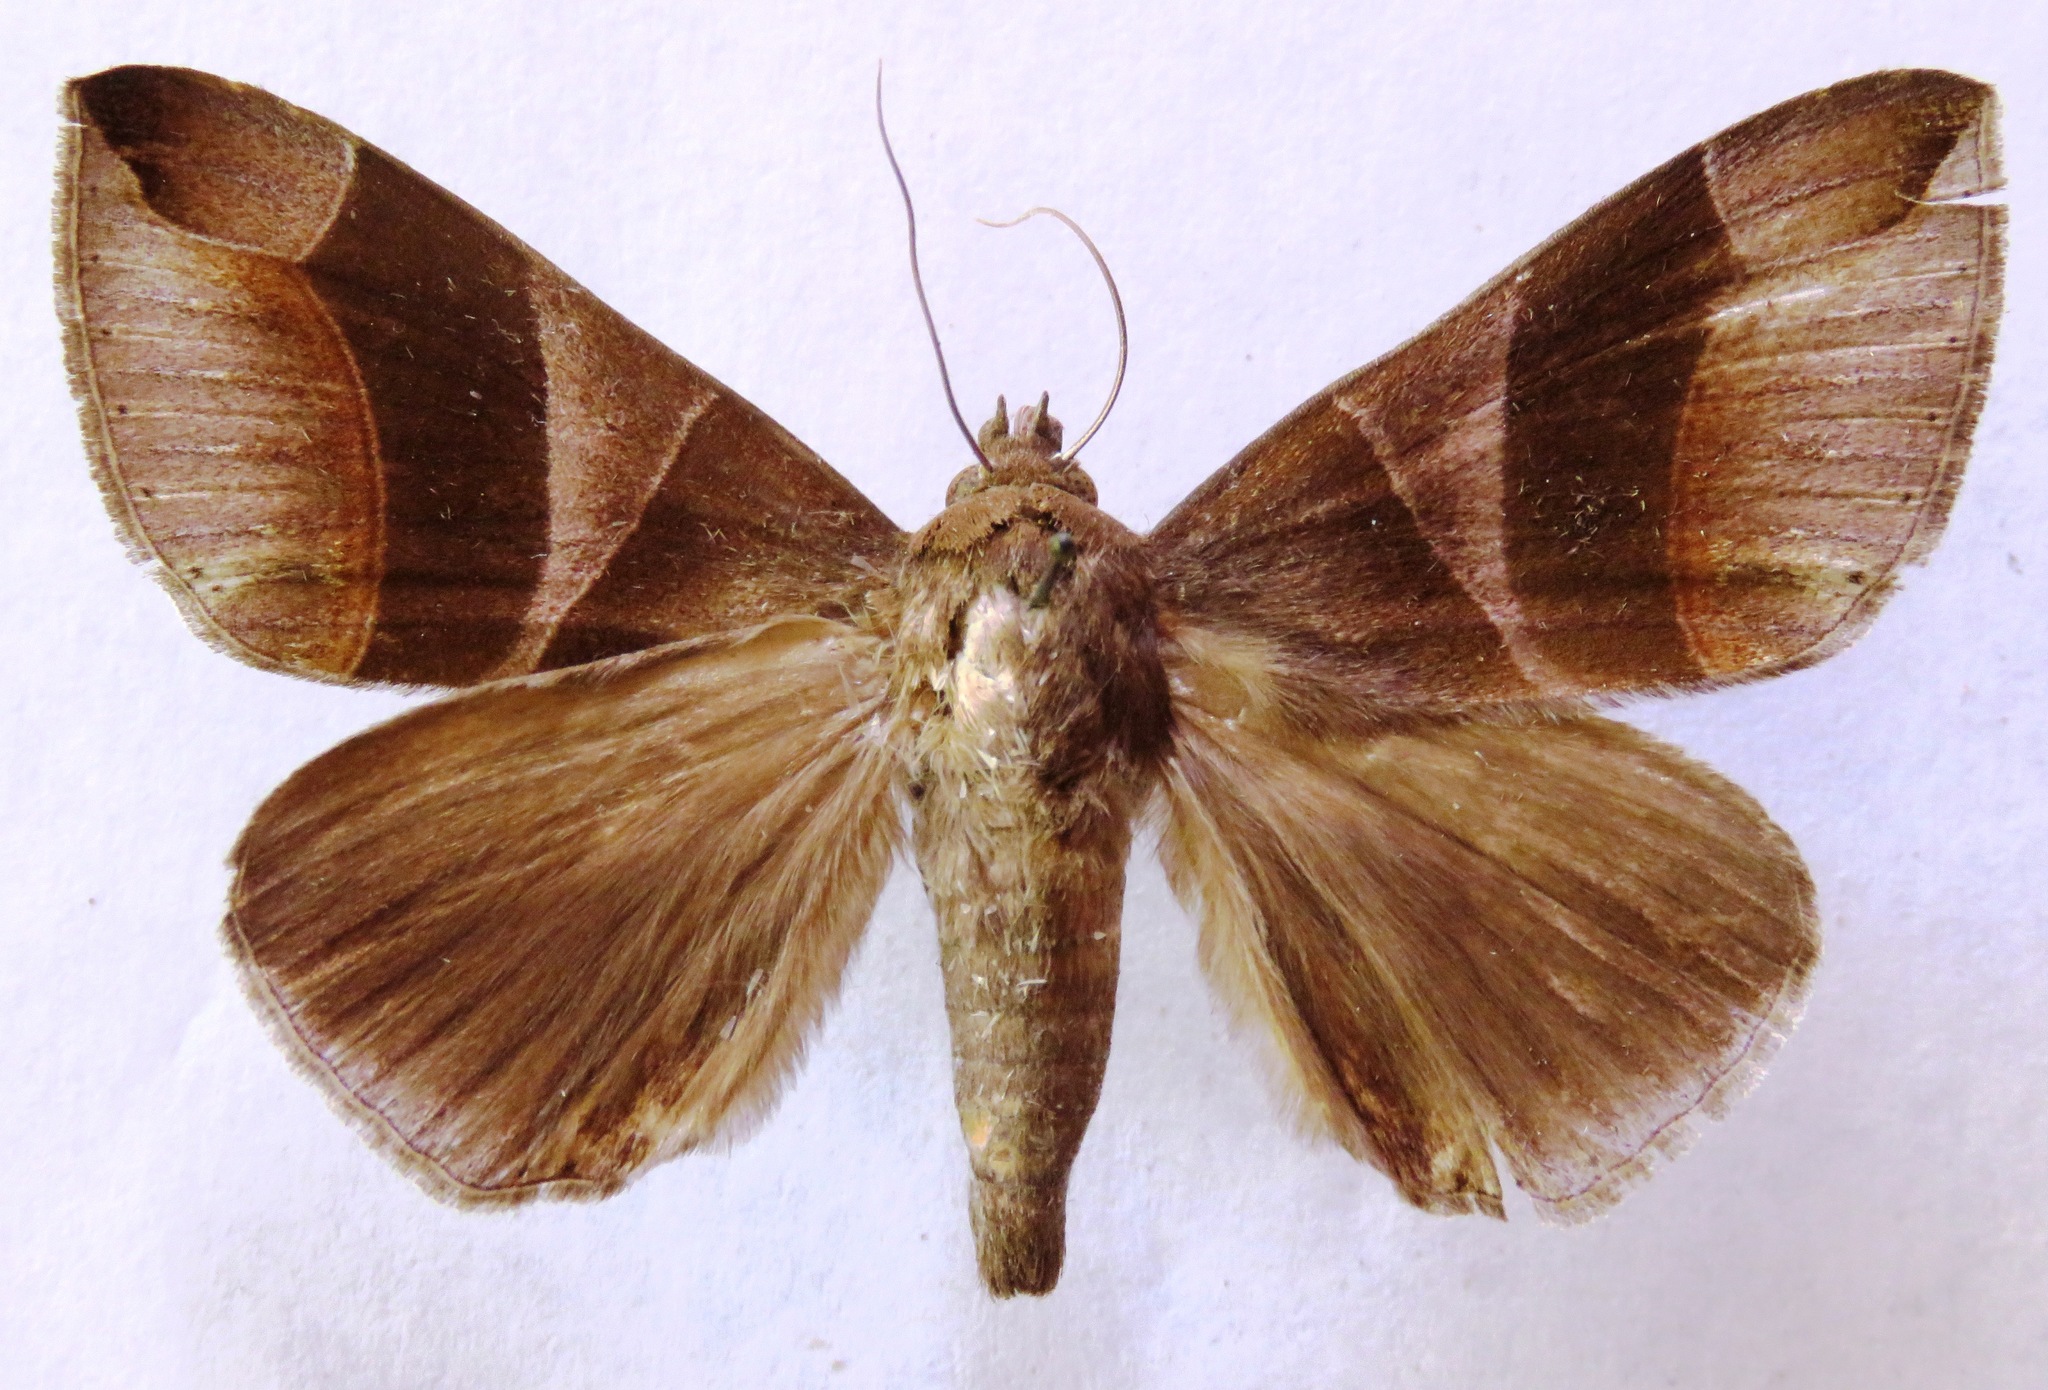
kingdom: Animalia
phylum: Arthropoda
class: Insecta
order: Lepidoptera
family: Erebidae
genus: Dysgonia
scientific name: Dysgonia purpurata
